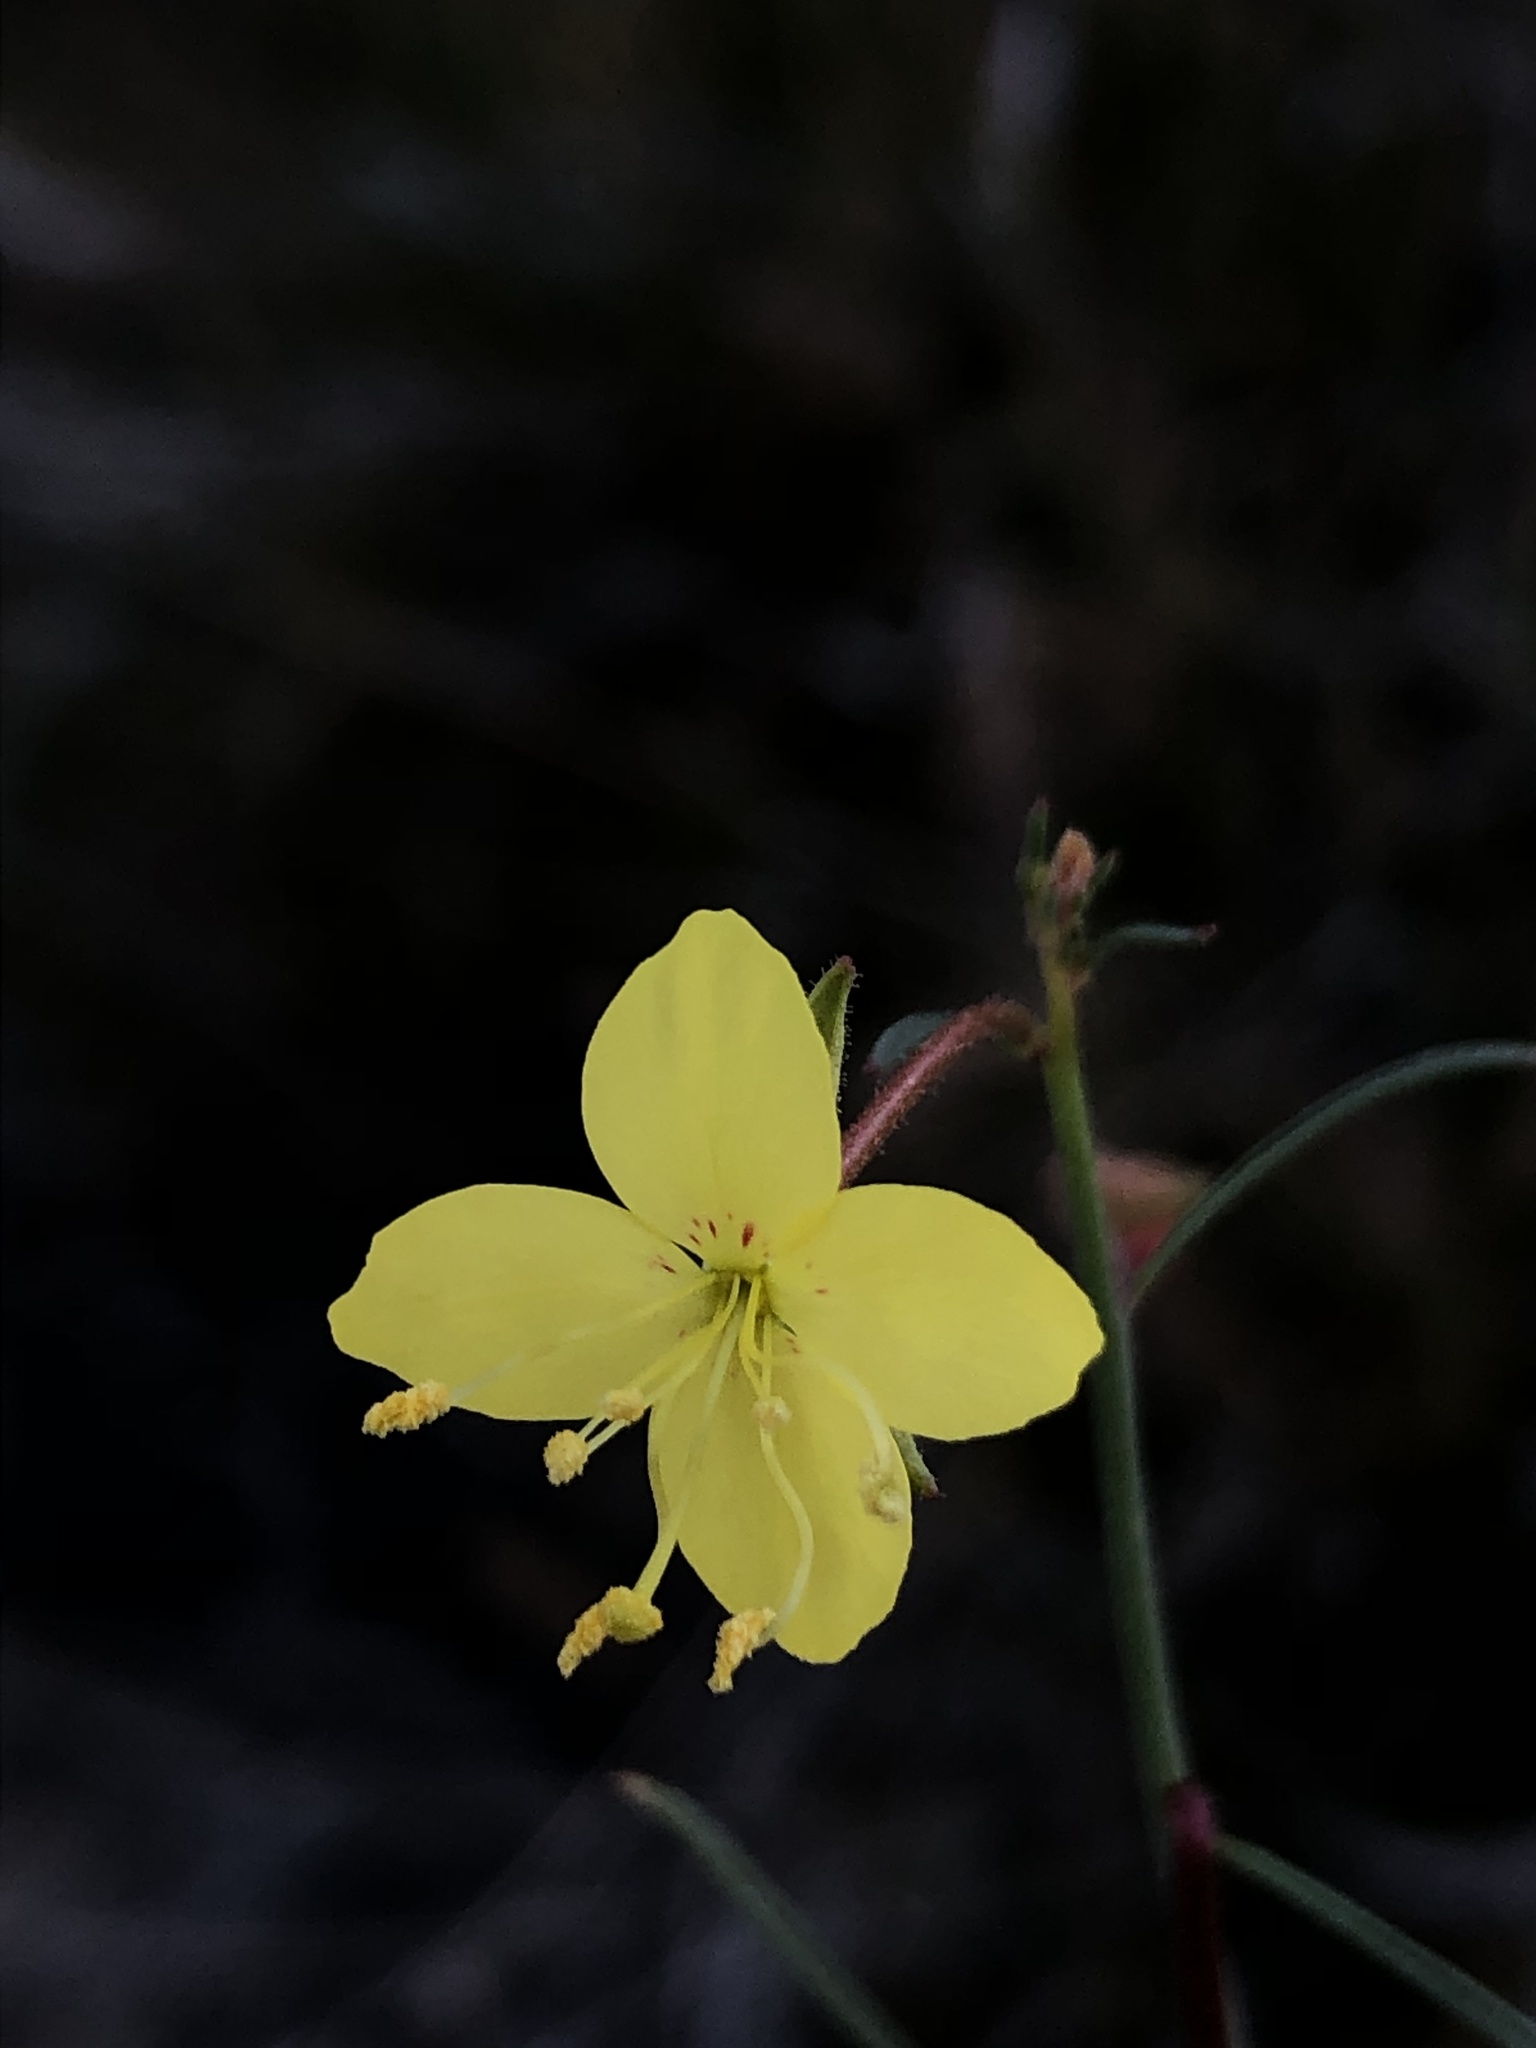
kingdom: Plantae
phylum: Tracheophyta
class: Magnoliopsida
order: Myrtales
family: Onagraceae
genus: Eulobus
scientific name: Eulobus californicus
